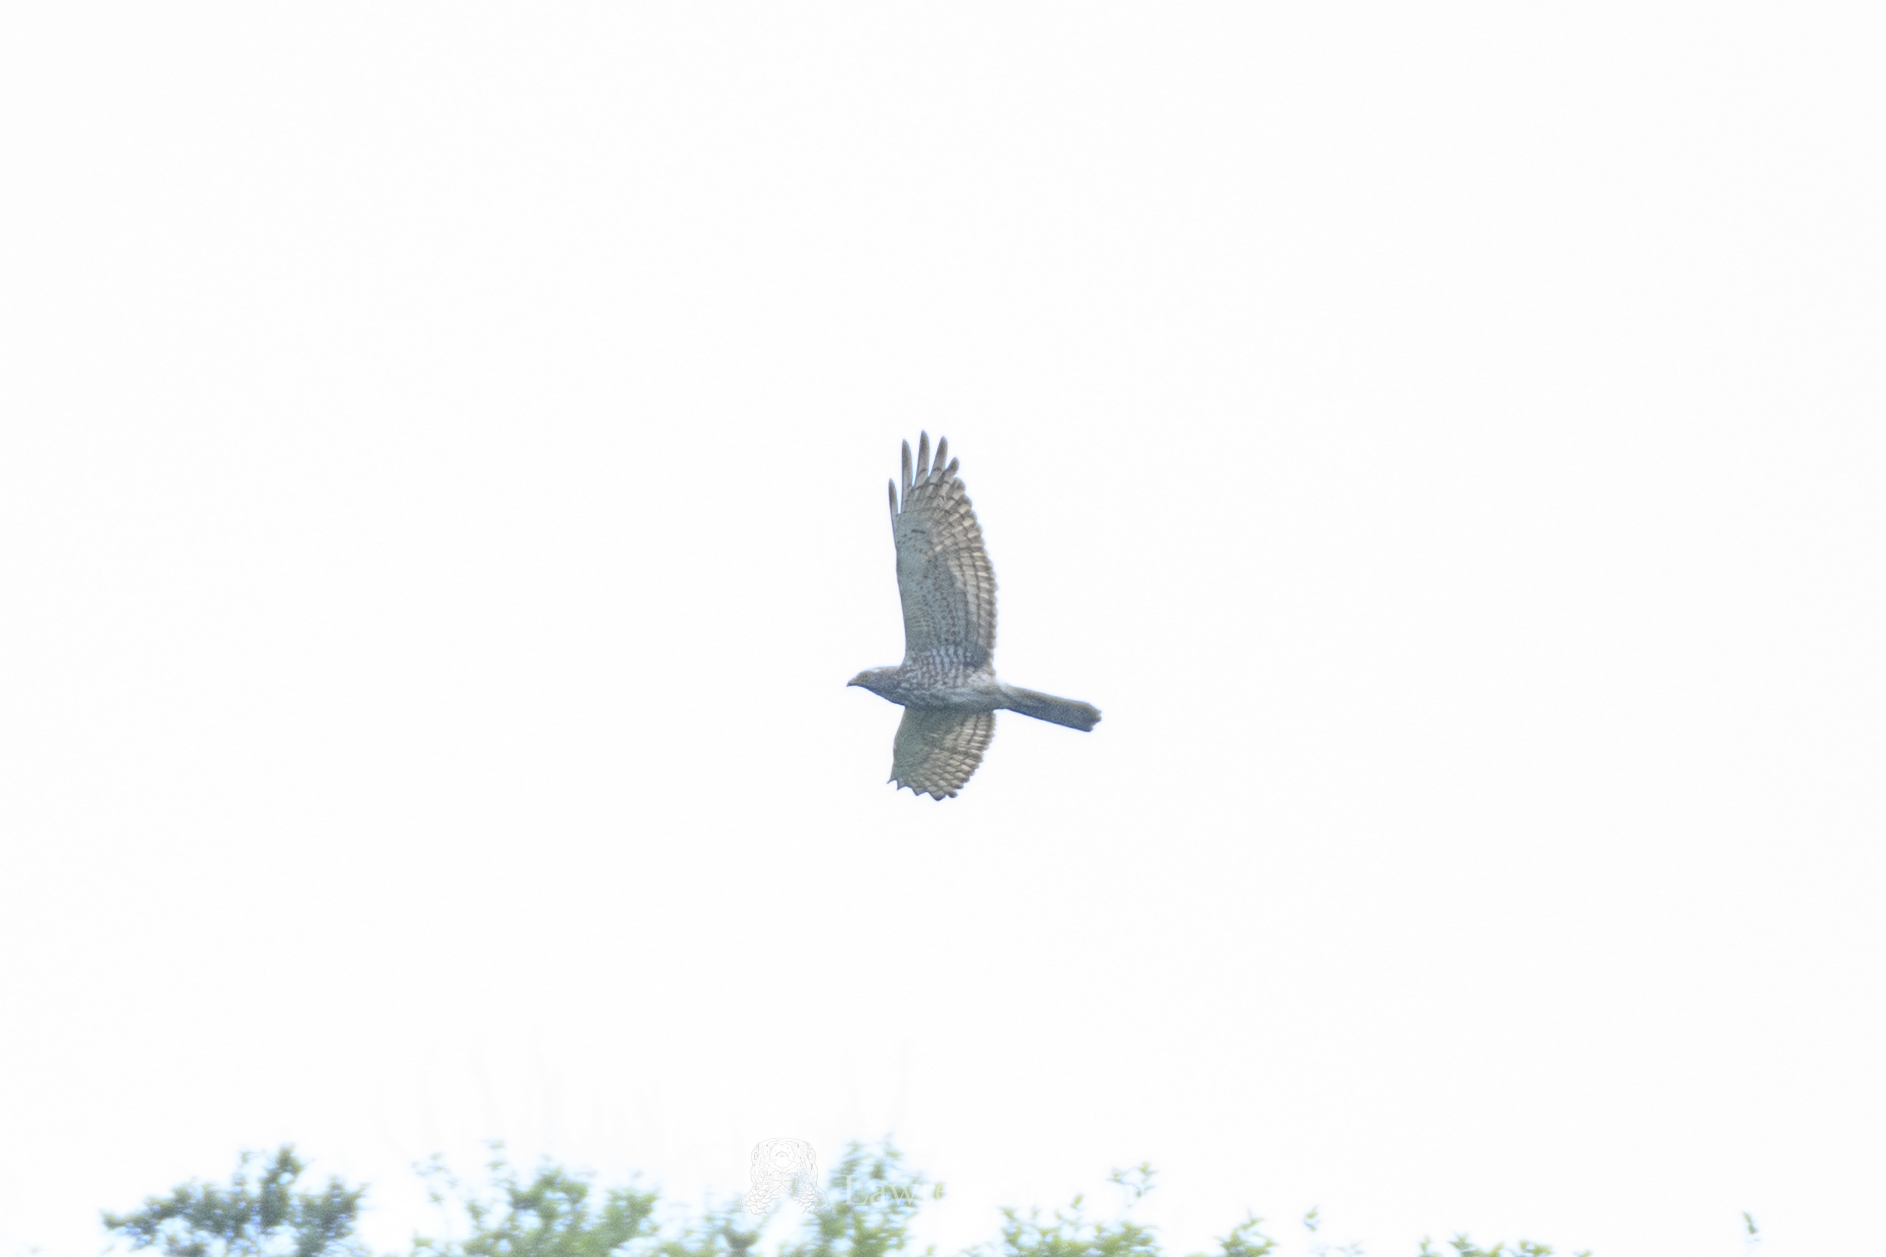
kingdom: Animalia
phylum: Chordata
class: Aves
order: Accipitriformes
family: Accipitridae
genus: Butastur
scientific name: Butastur indicus
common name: Grey-faced buzzard
